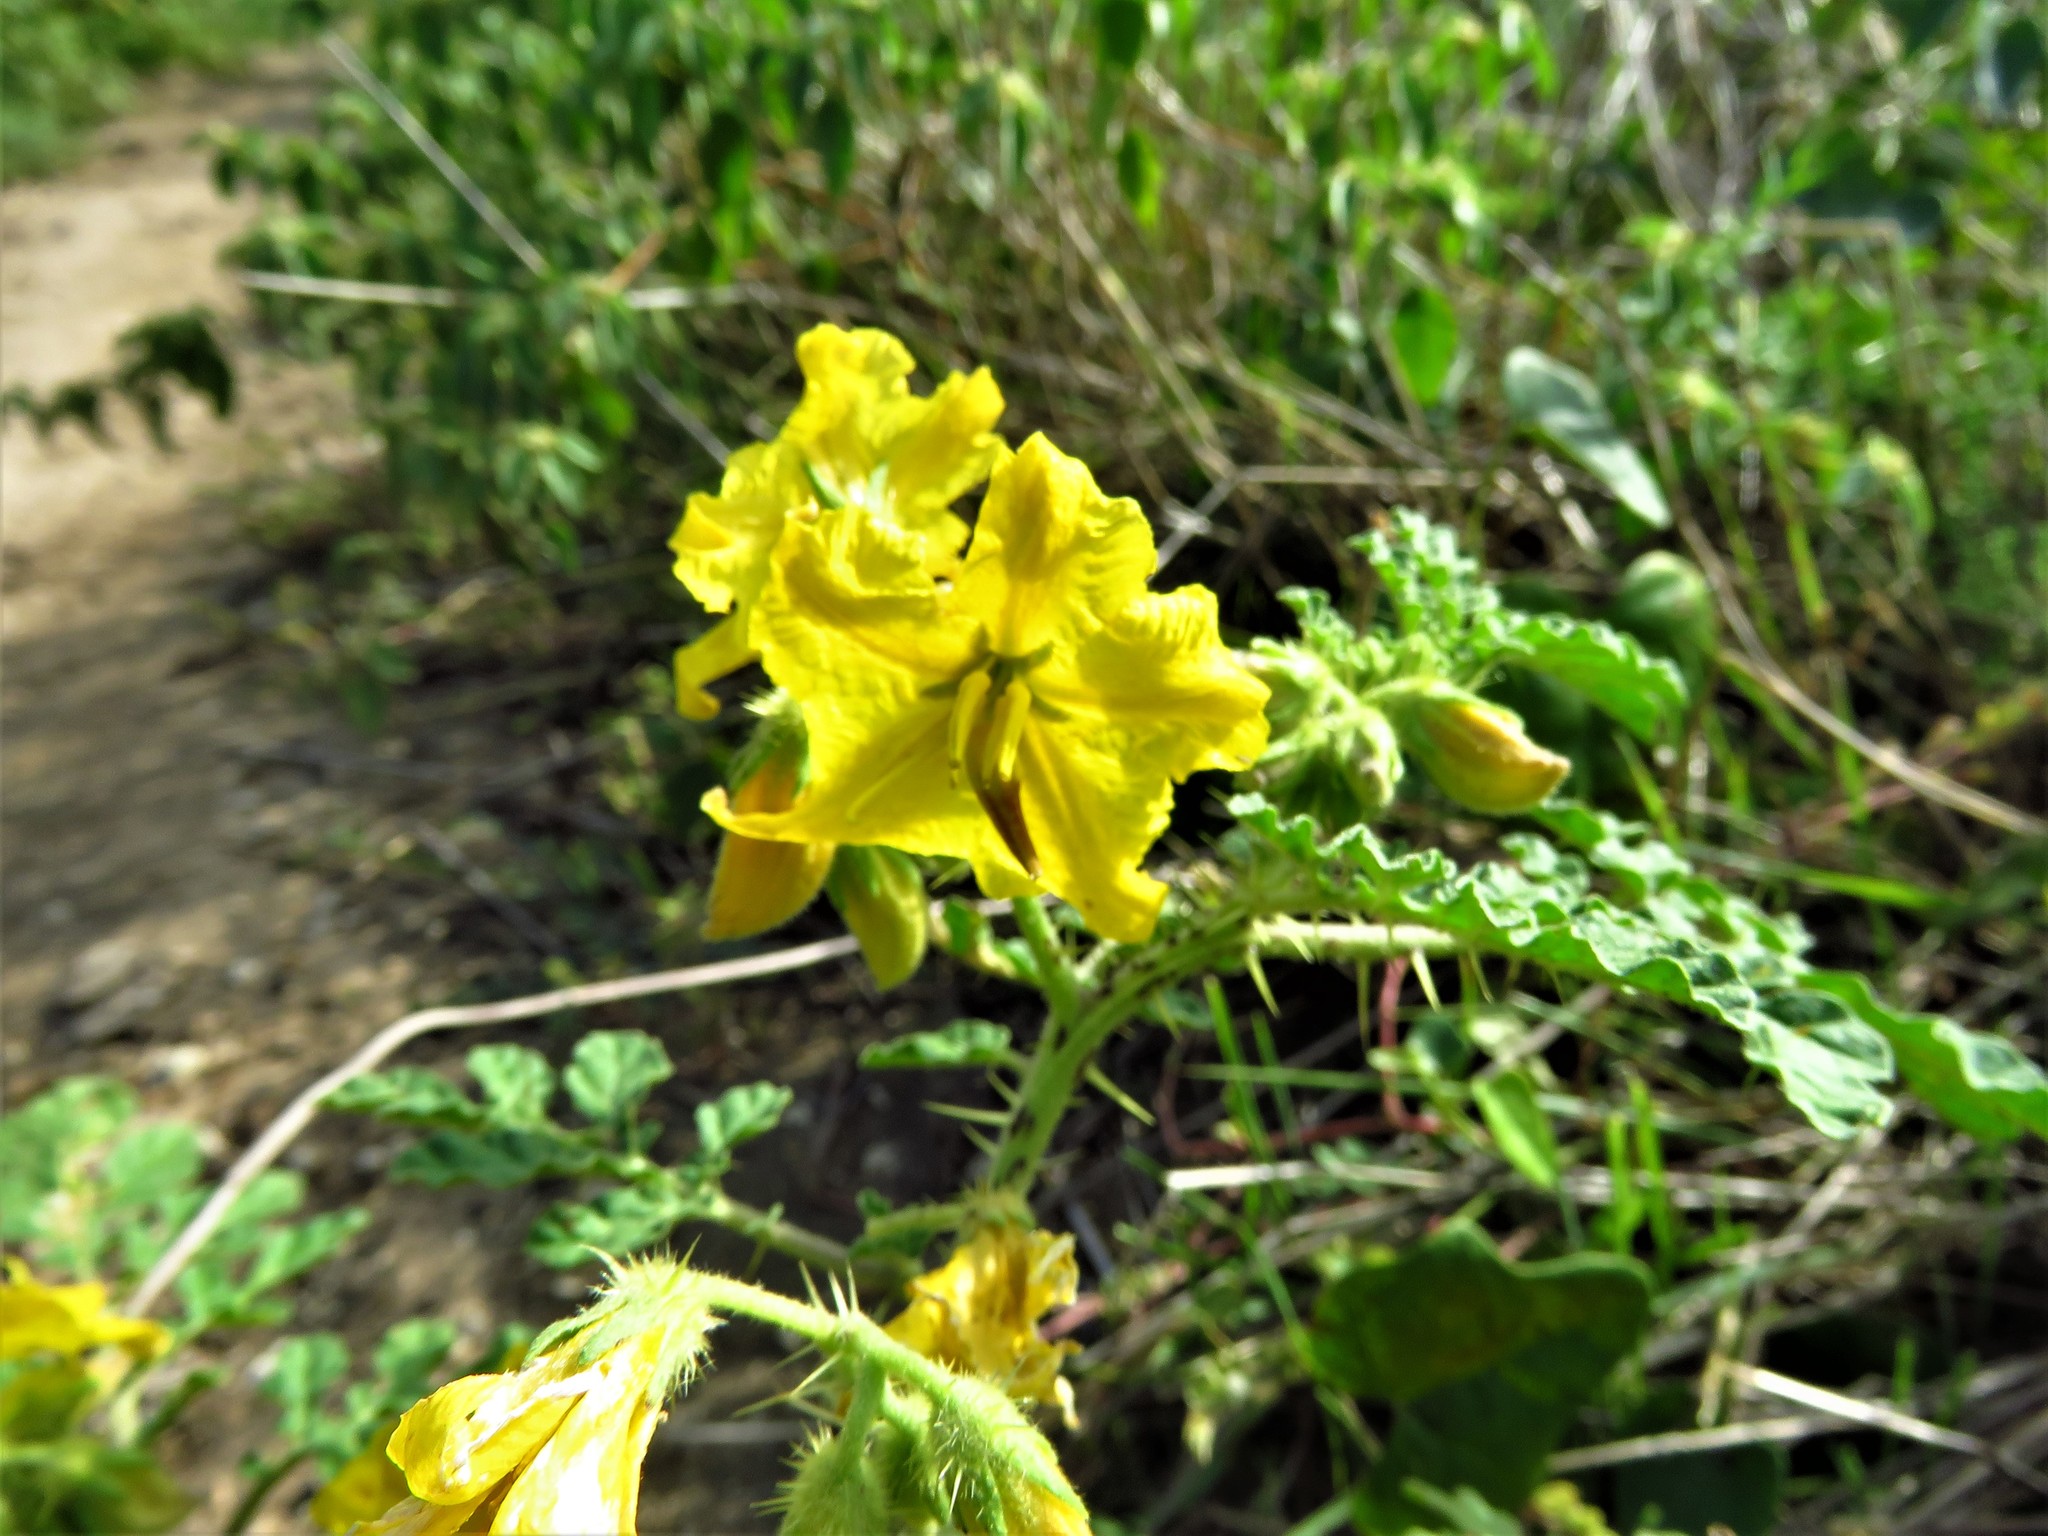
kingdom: Plantae
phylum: Tracheophyta
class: Magnoliopsida
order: Solanales
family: Solanaceae
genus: Solanum
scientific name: Solanum angustifolium
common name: Buffalobur nightshade
